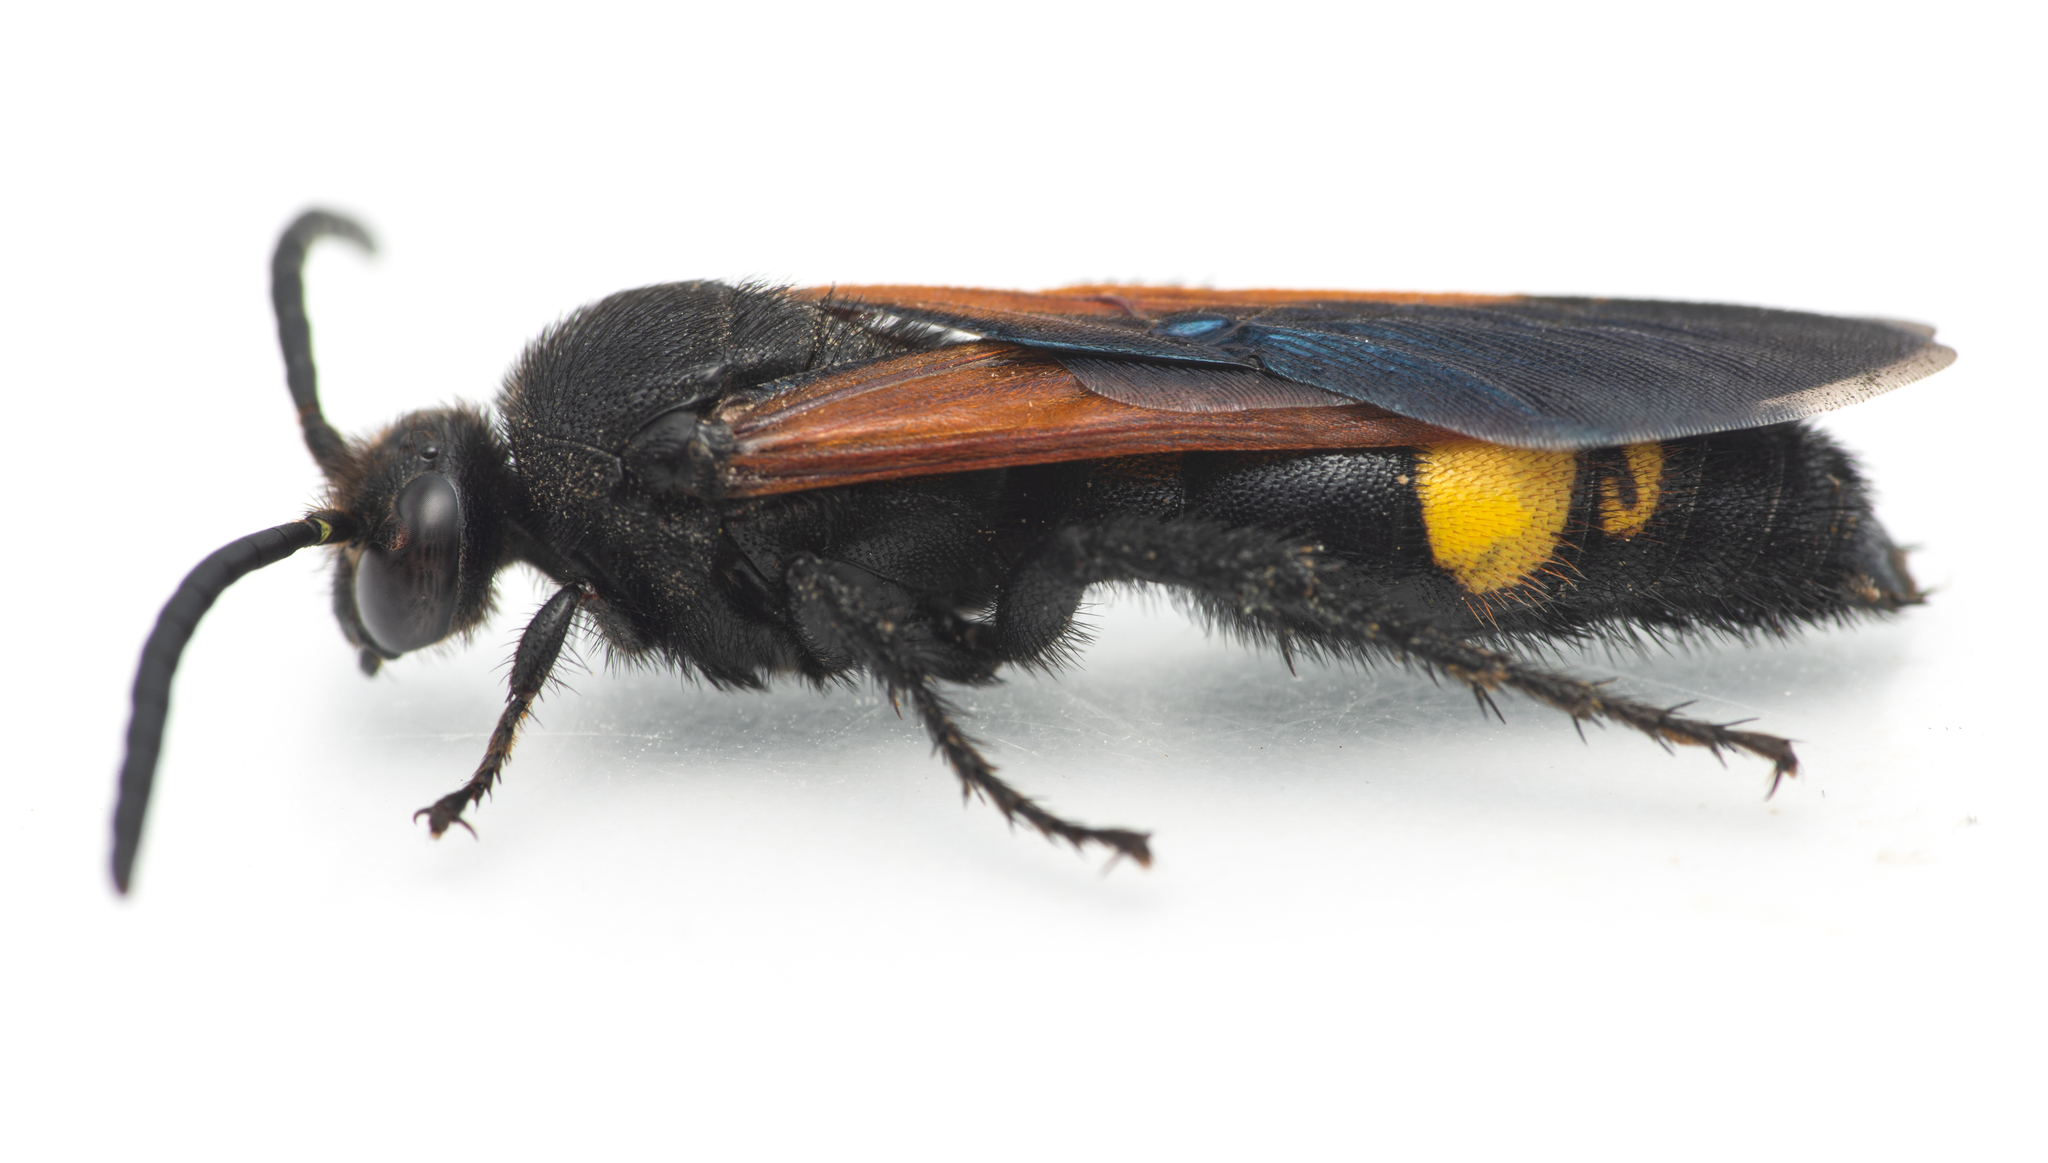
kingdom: Animalia
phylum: Arthropoda
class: Insecta
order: Hymenoptera
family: Scoliidae
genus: Scolia
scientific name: Scolia erythrocephala
